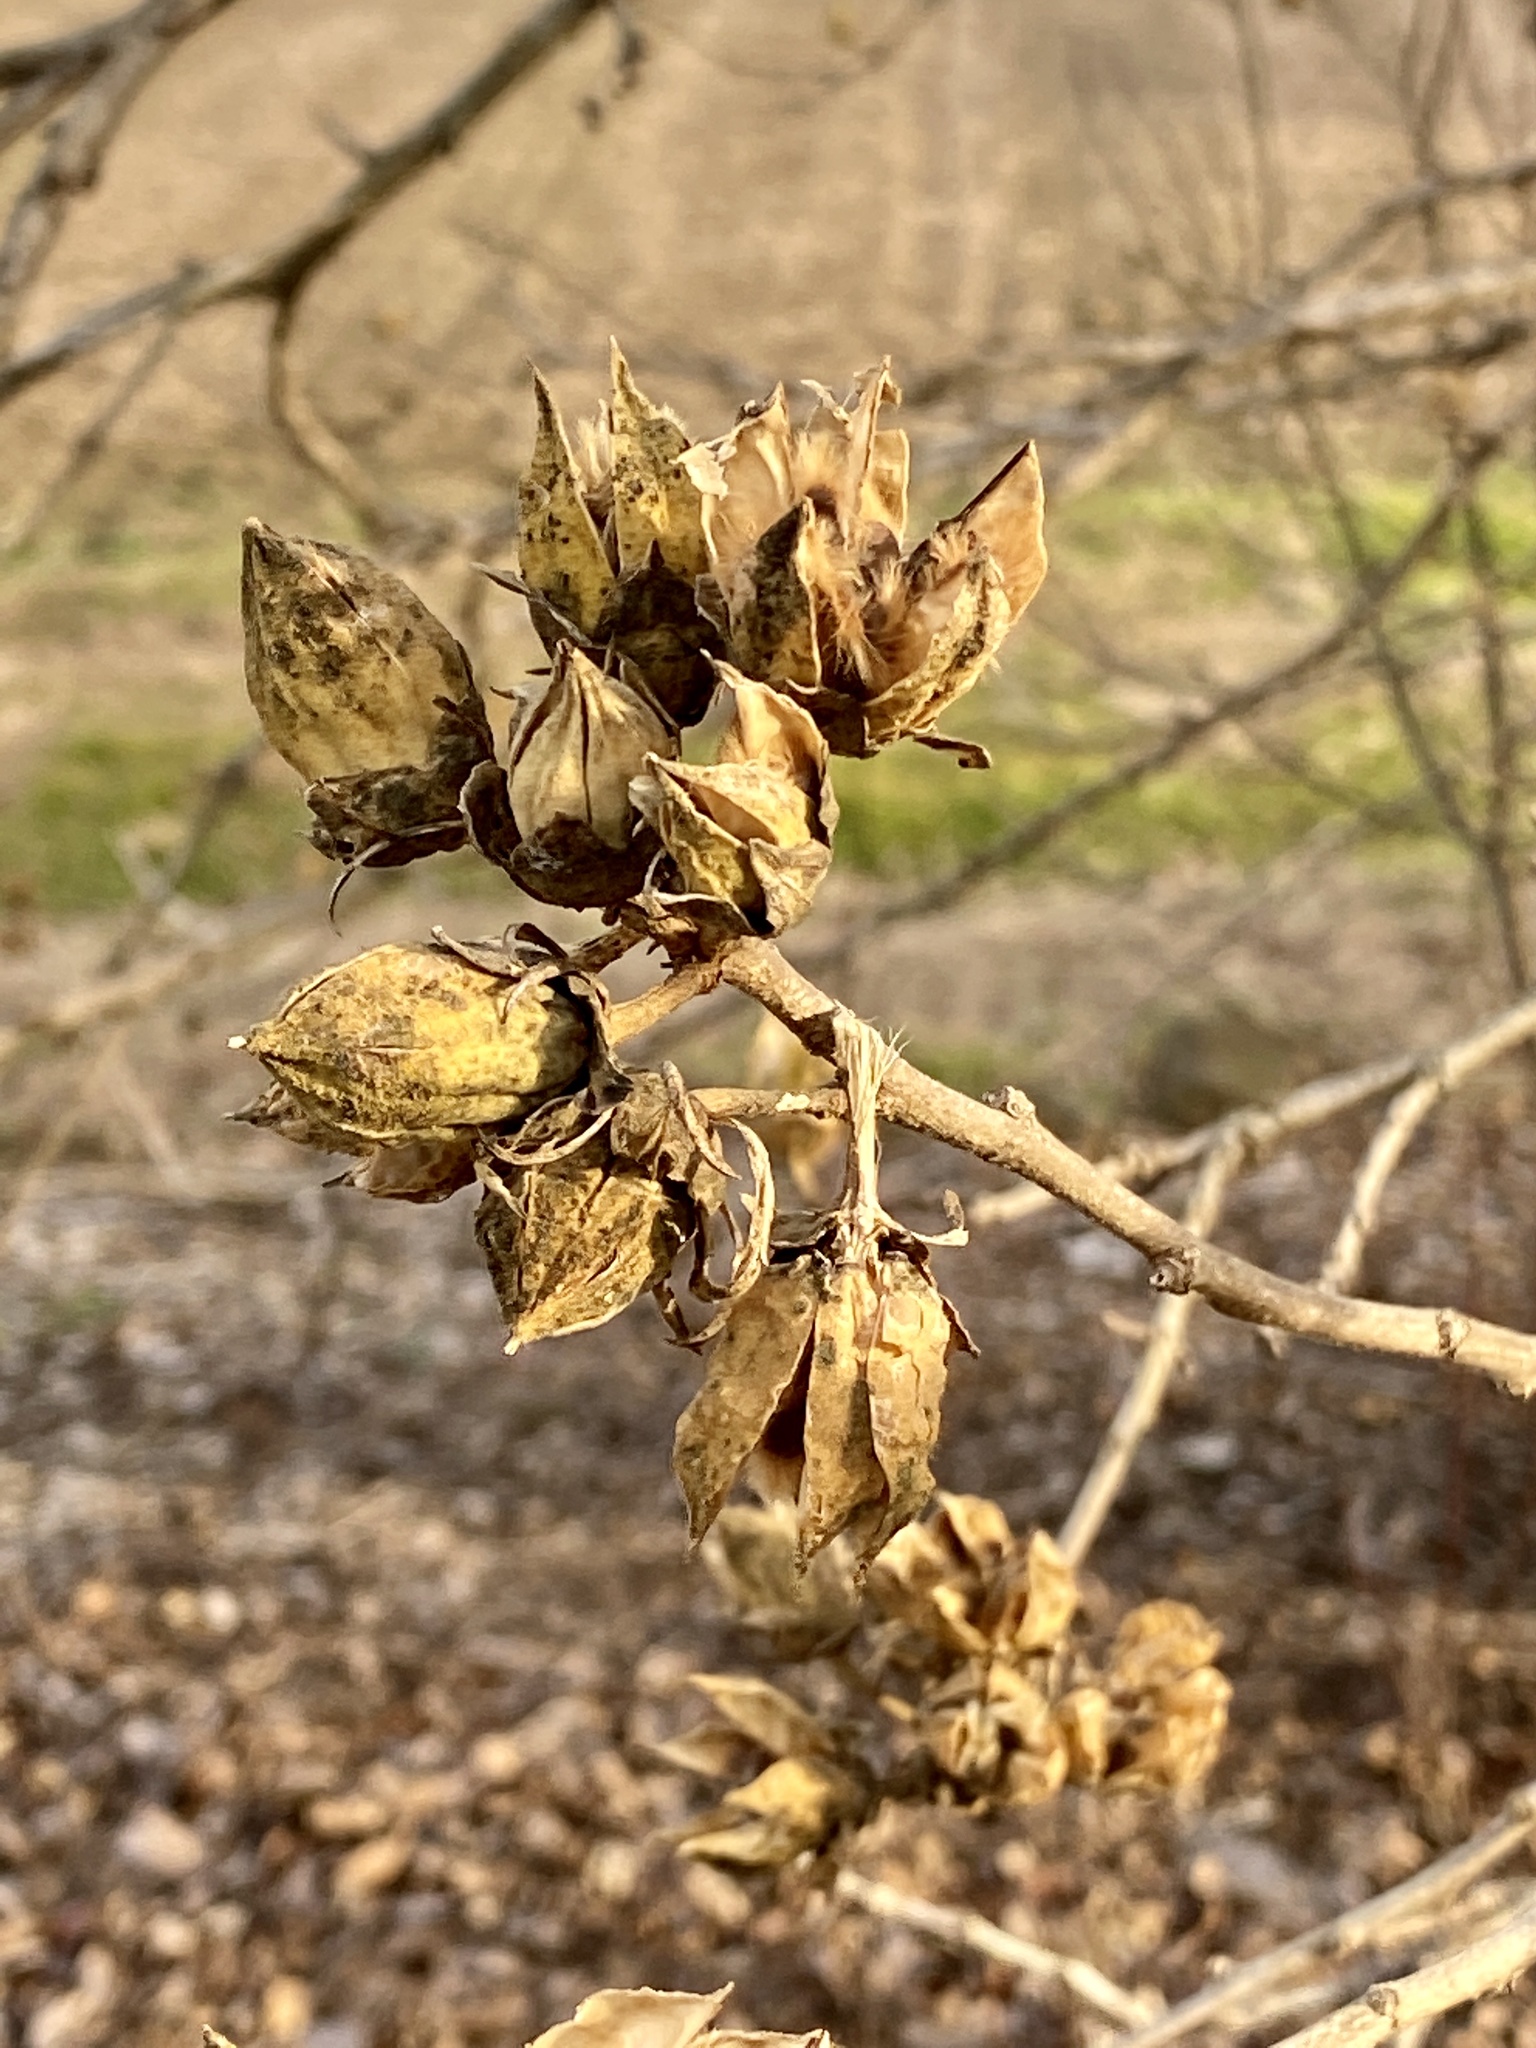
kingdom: Plantae
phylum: Tracheophyta
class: Magnoliopsida
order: Malvales
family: Malvaceae
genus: Hibiscus
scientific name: Hibiscus syriacus
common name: Syrian ketmia
